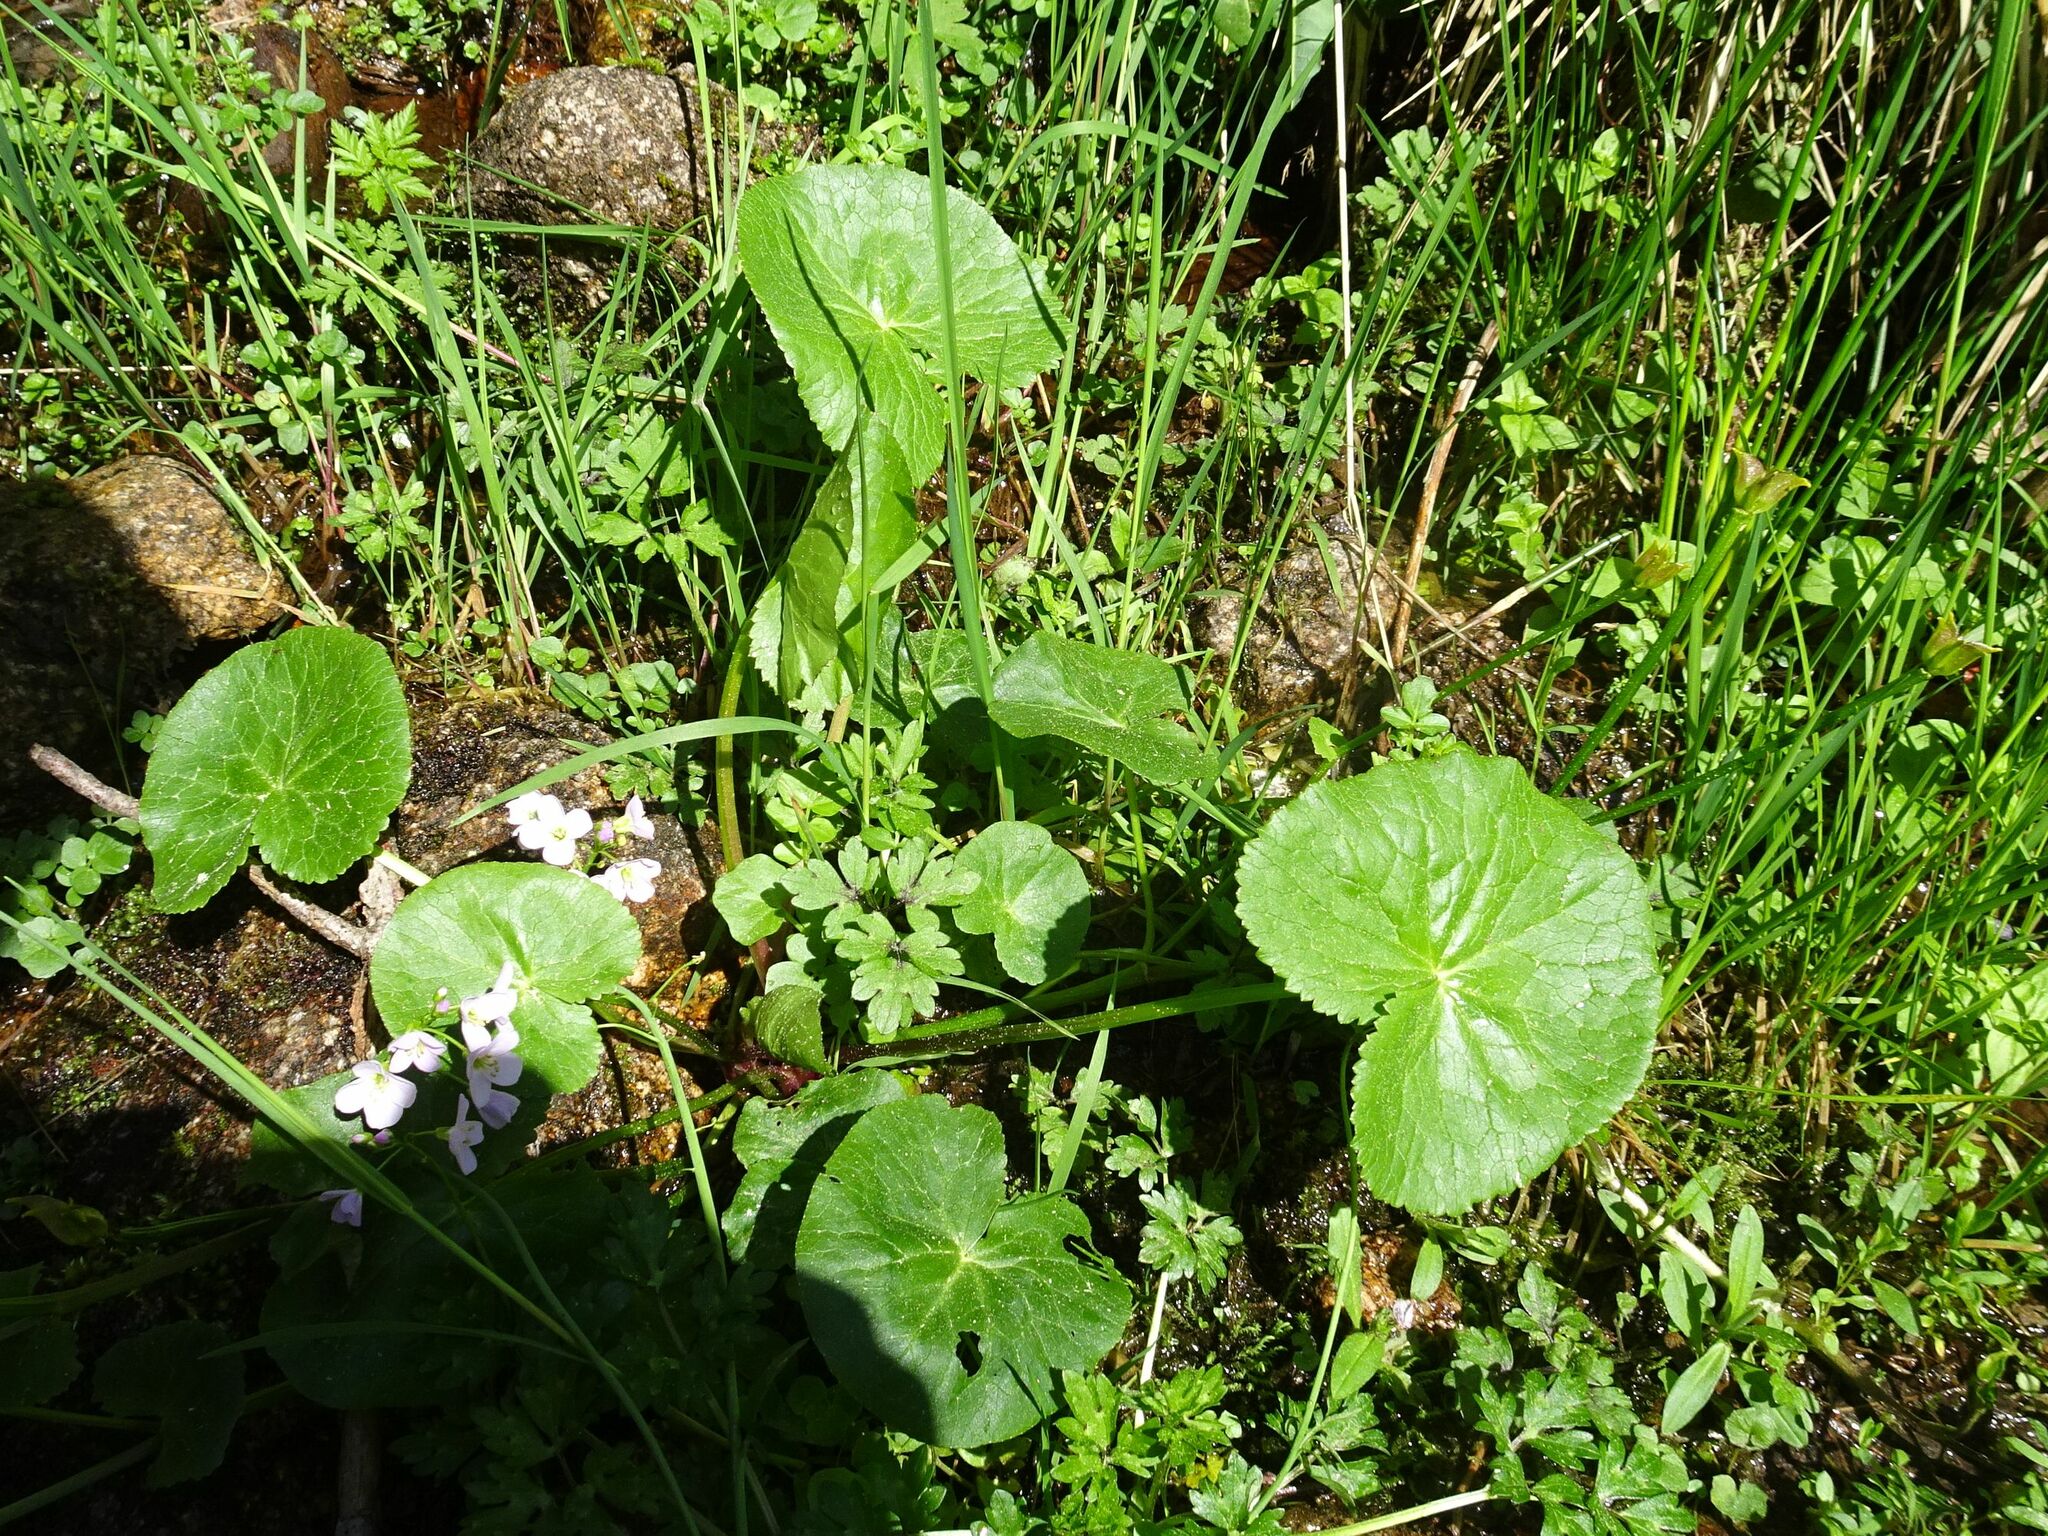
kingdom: Plantae
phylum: Tracheophyta
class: Magnoliopsida
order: Ranunculales
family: Ranunculaceae
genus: Caltha
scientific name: Caltha palustris
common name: Marsh marigold
